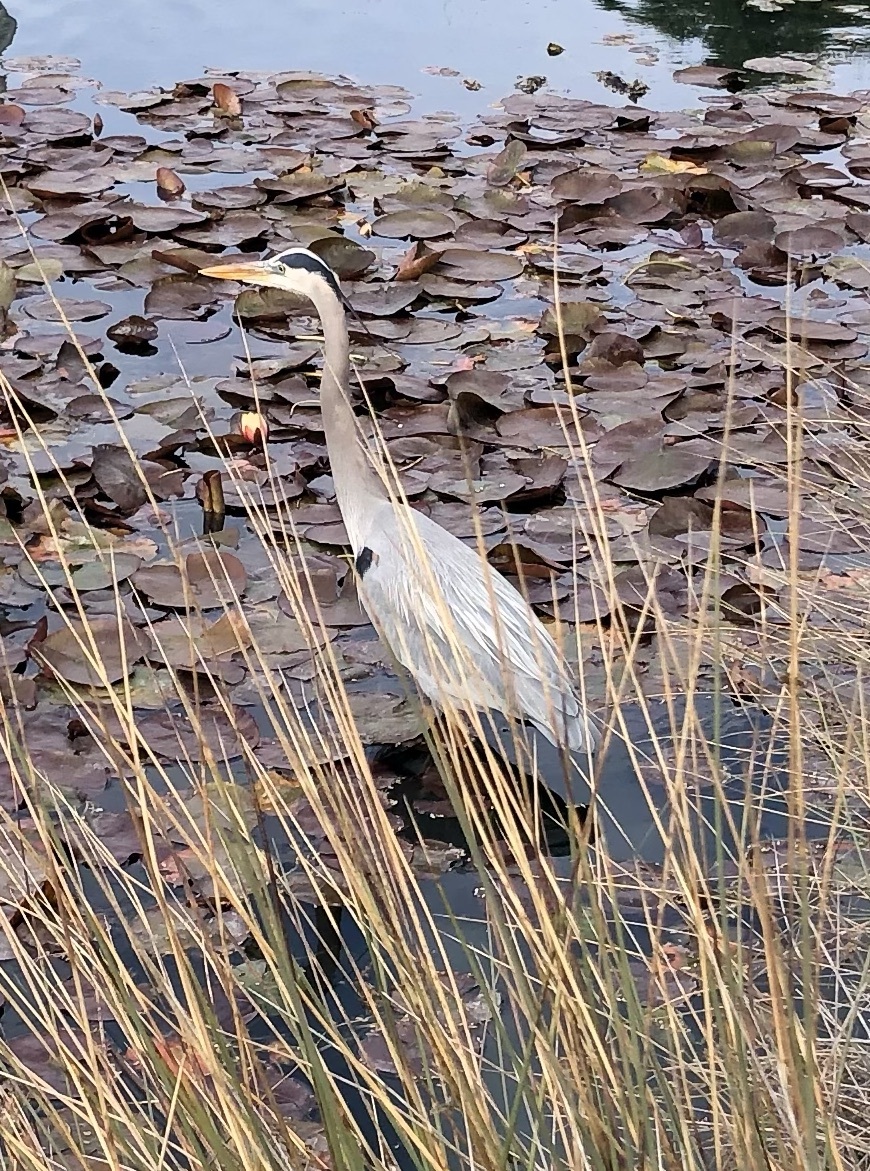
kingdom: Animalia
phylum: Chordata
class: Aves
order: Pelecaniformes
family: Ardeidae
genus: Ardea
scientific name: Ardea herodias
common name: Great blue heron
